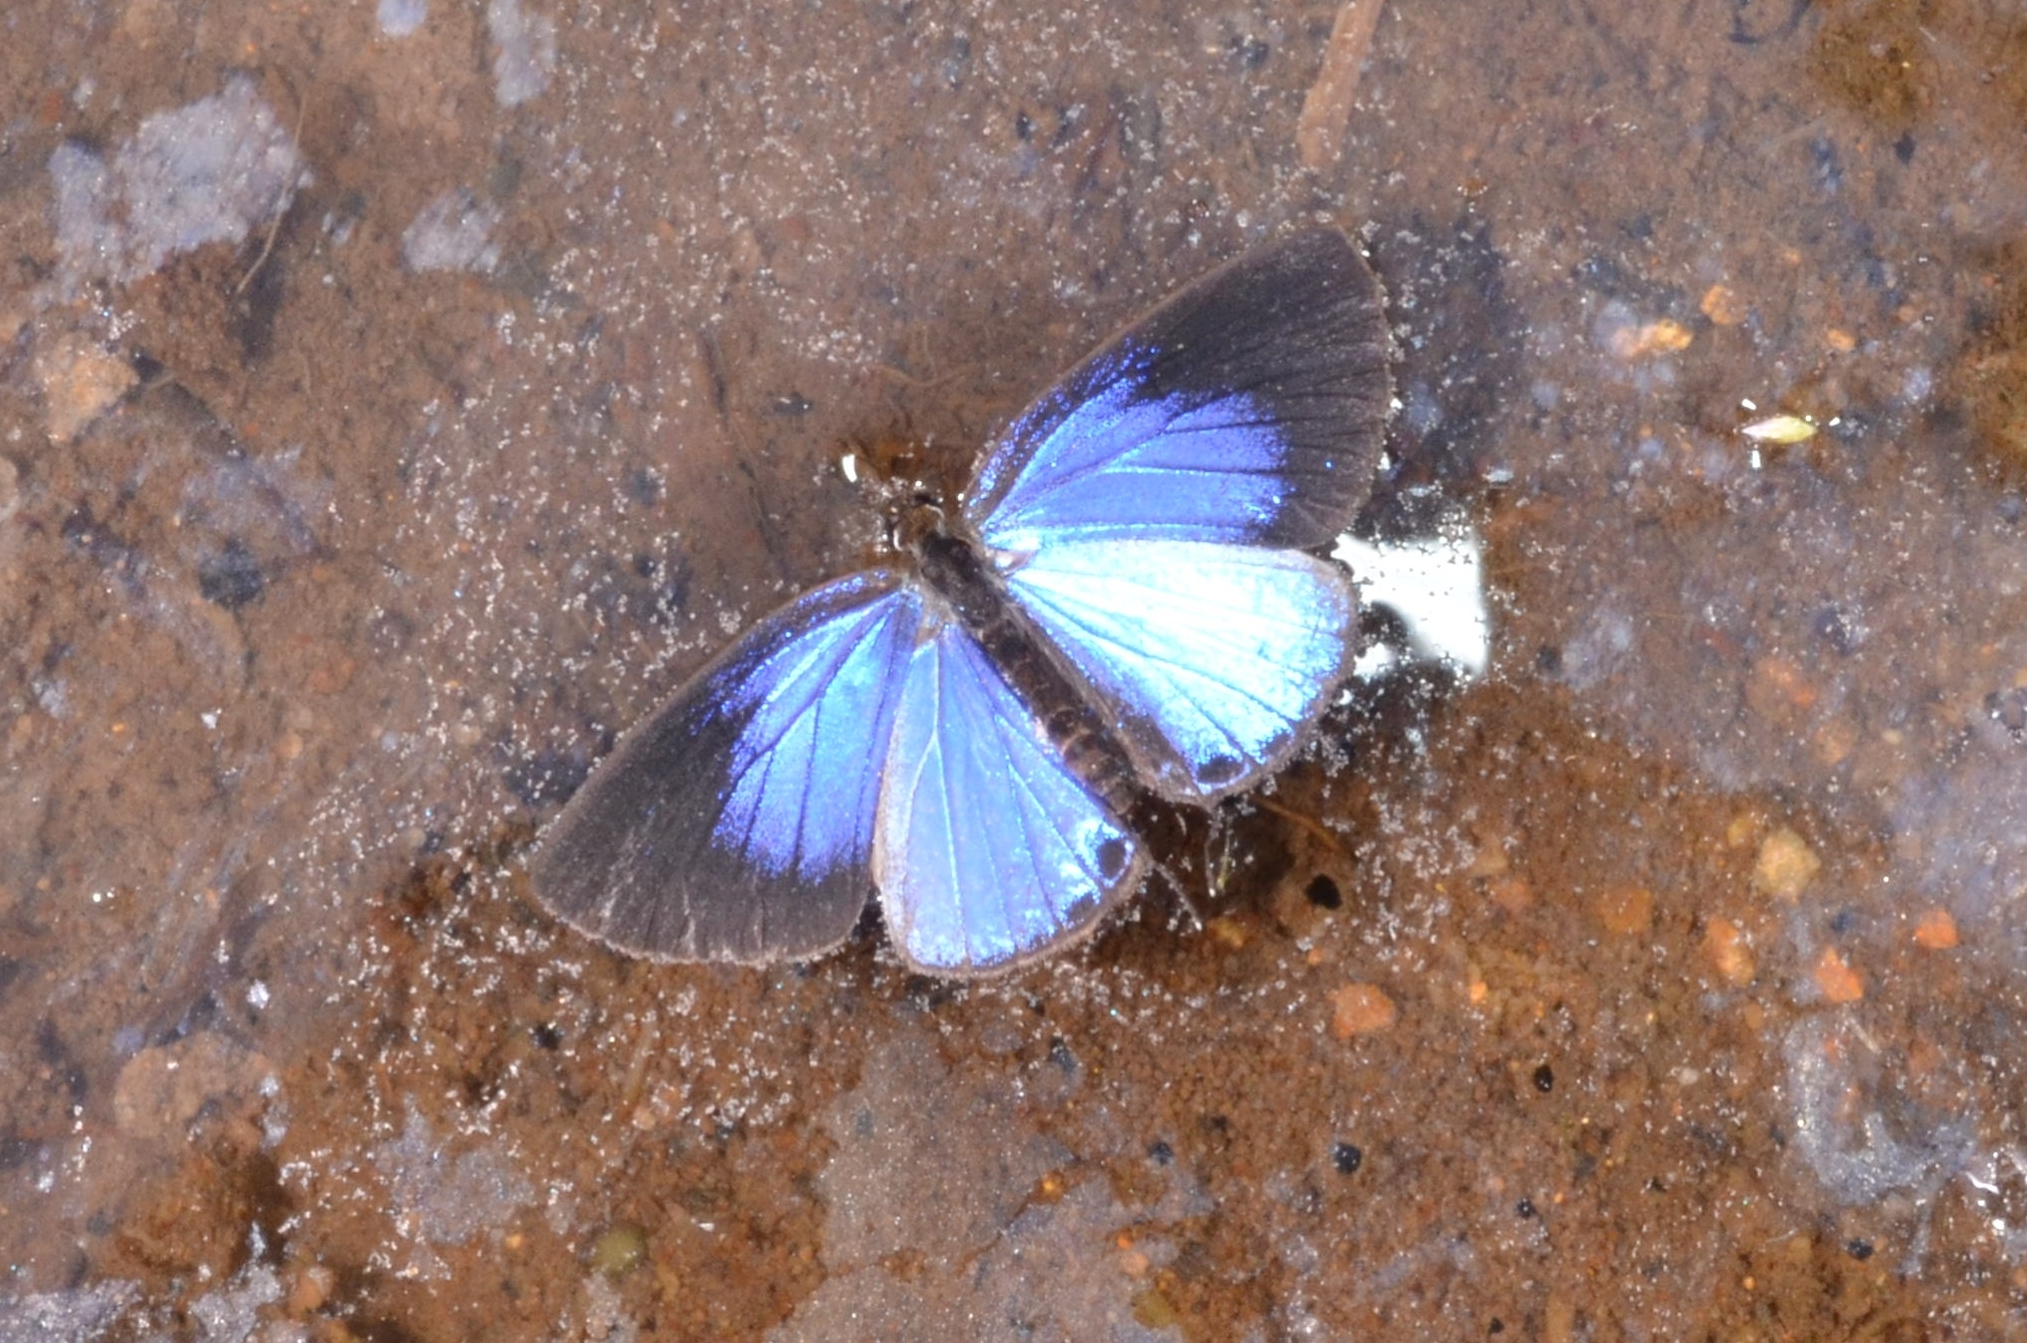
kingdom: Animalia
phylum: Arthropoda
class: Insecta
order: Lepidoptera
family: Lycaenidae
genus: Jamides
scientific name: Jamides bochus
